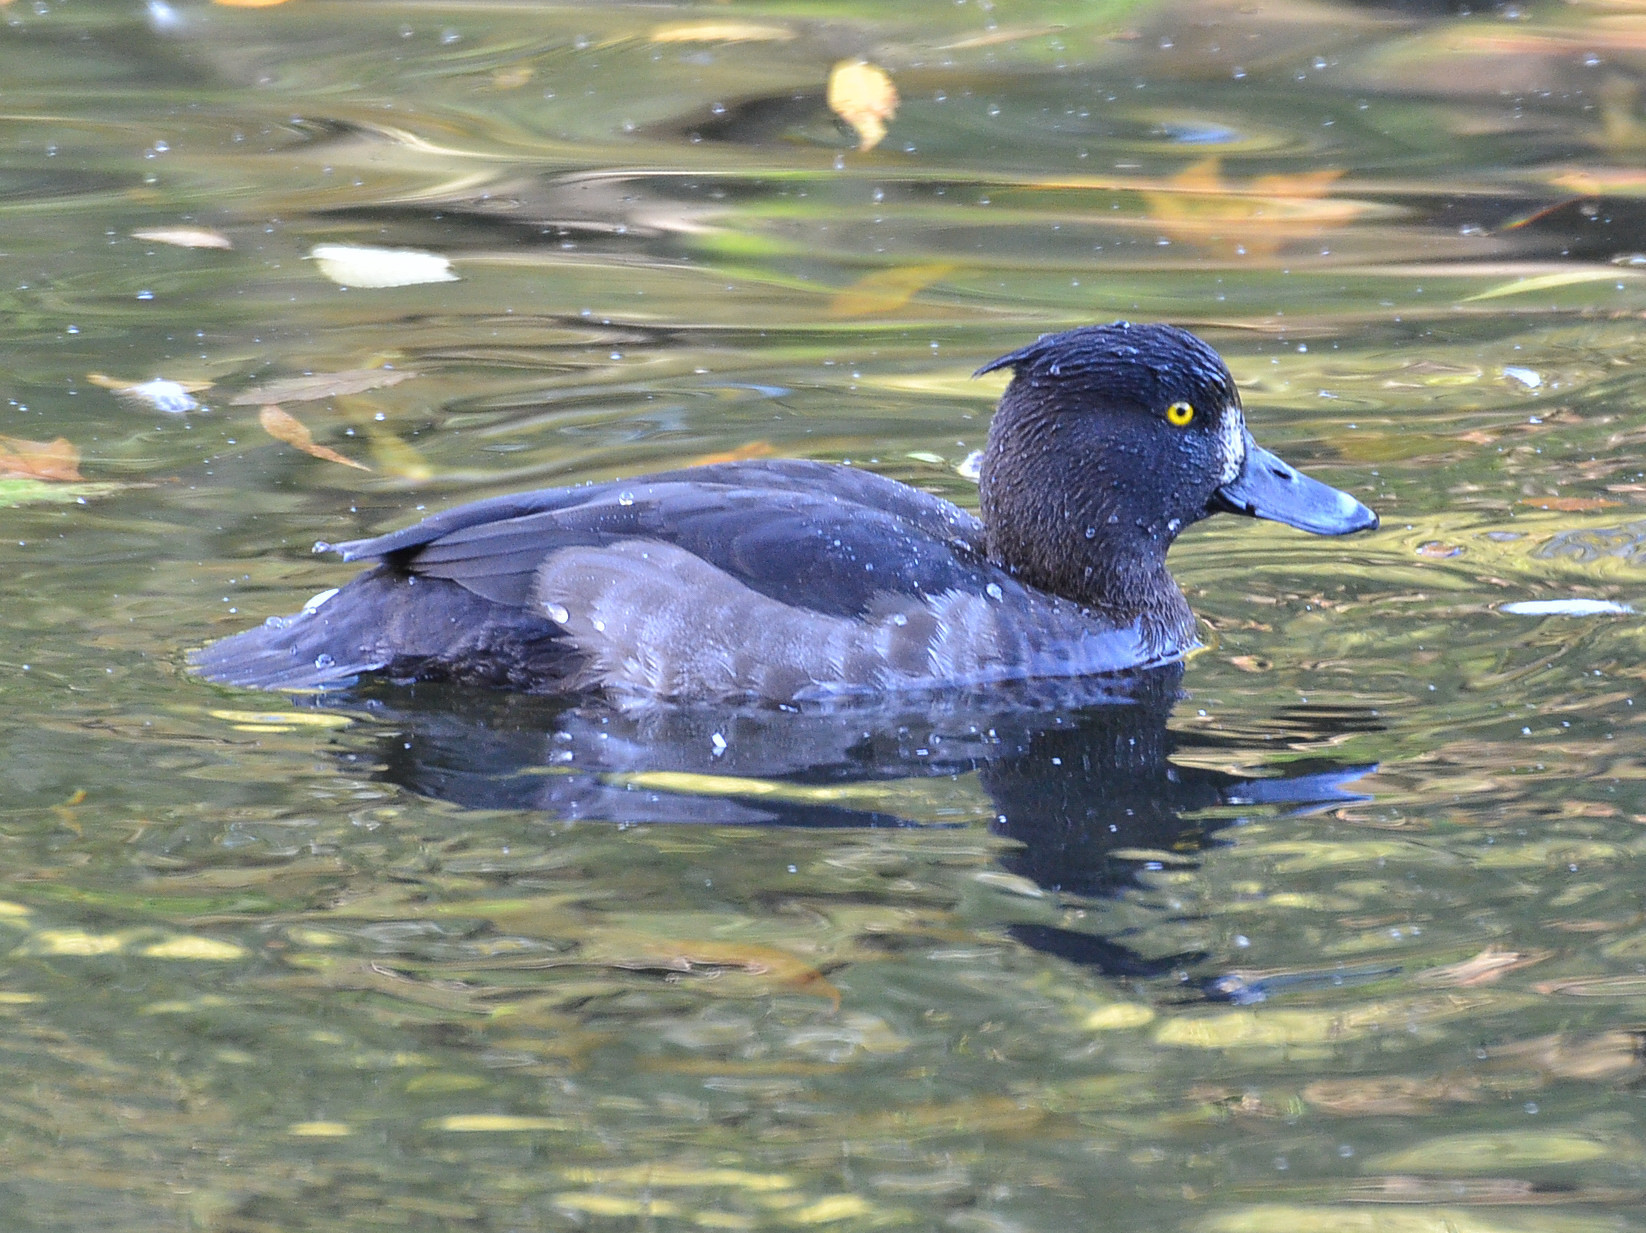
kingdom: Animalia
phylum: Chordata
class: Aves
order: Anseriformes
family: Anatidae
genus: Aythya
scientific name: Aythya fuligula
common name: Tufted duck
